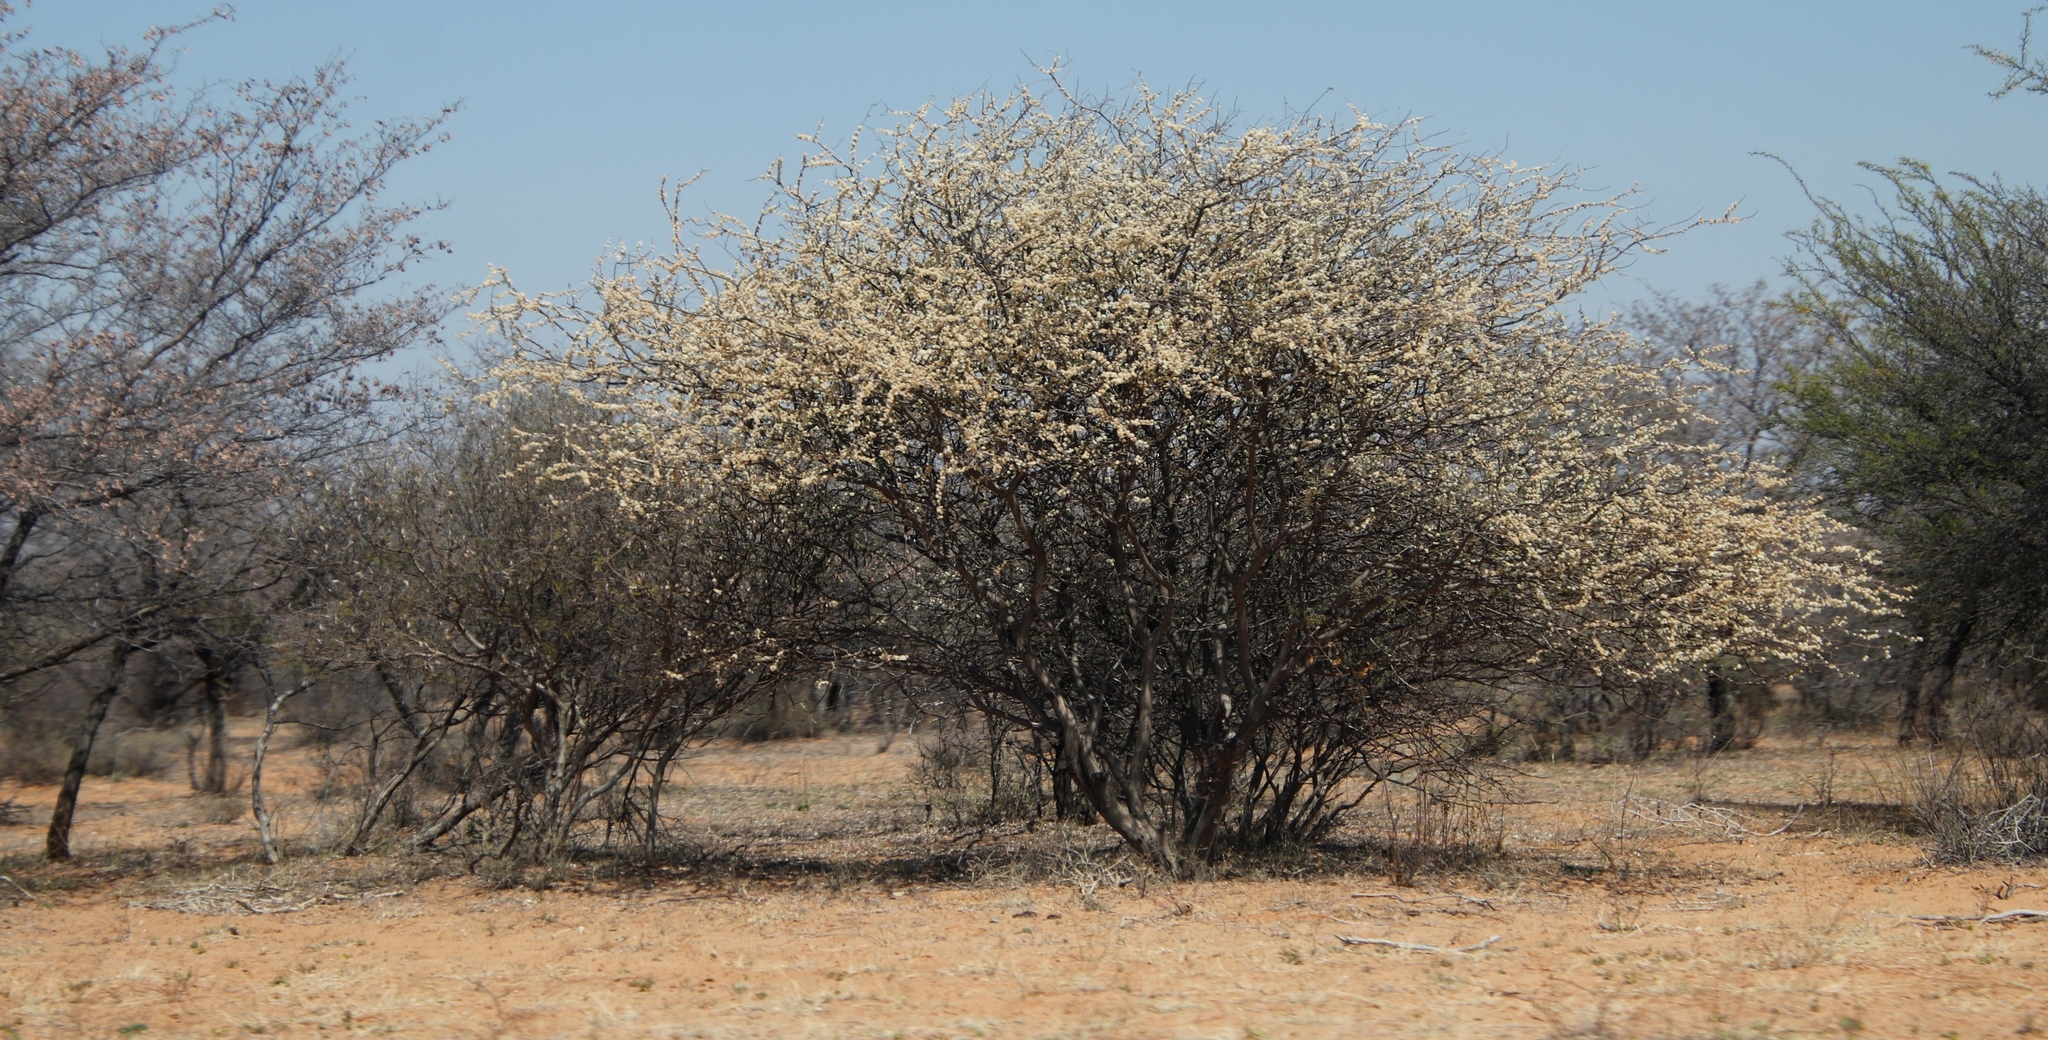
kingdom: Plantae
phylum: Tracheophyta
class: Magnoliopsida
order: Fabales
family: Fabaceae
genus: Senegalia
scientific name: Senegalia mellifera
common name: Hookthorn
